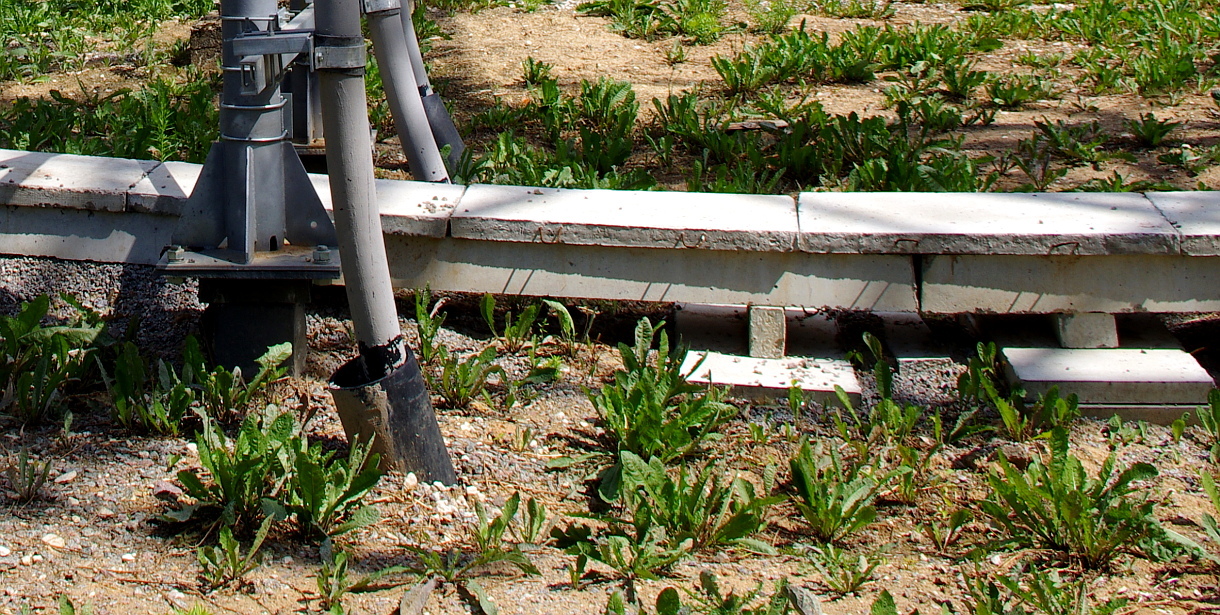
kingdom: Plantae
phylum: Tracheophyta
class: Magnoliopsida
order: Asterales
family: Asteraceae
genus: Taraxacum
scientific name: Taraxacum officinale
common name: Common dandelion
